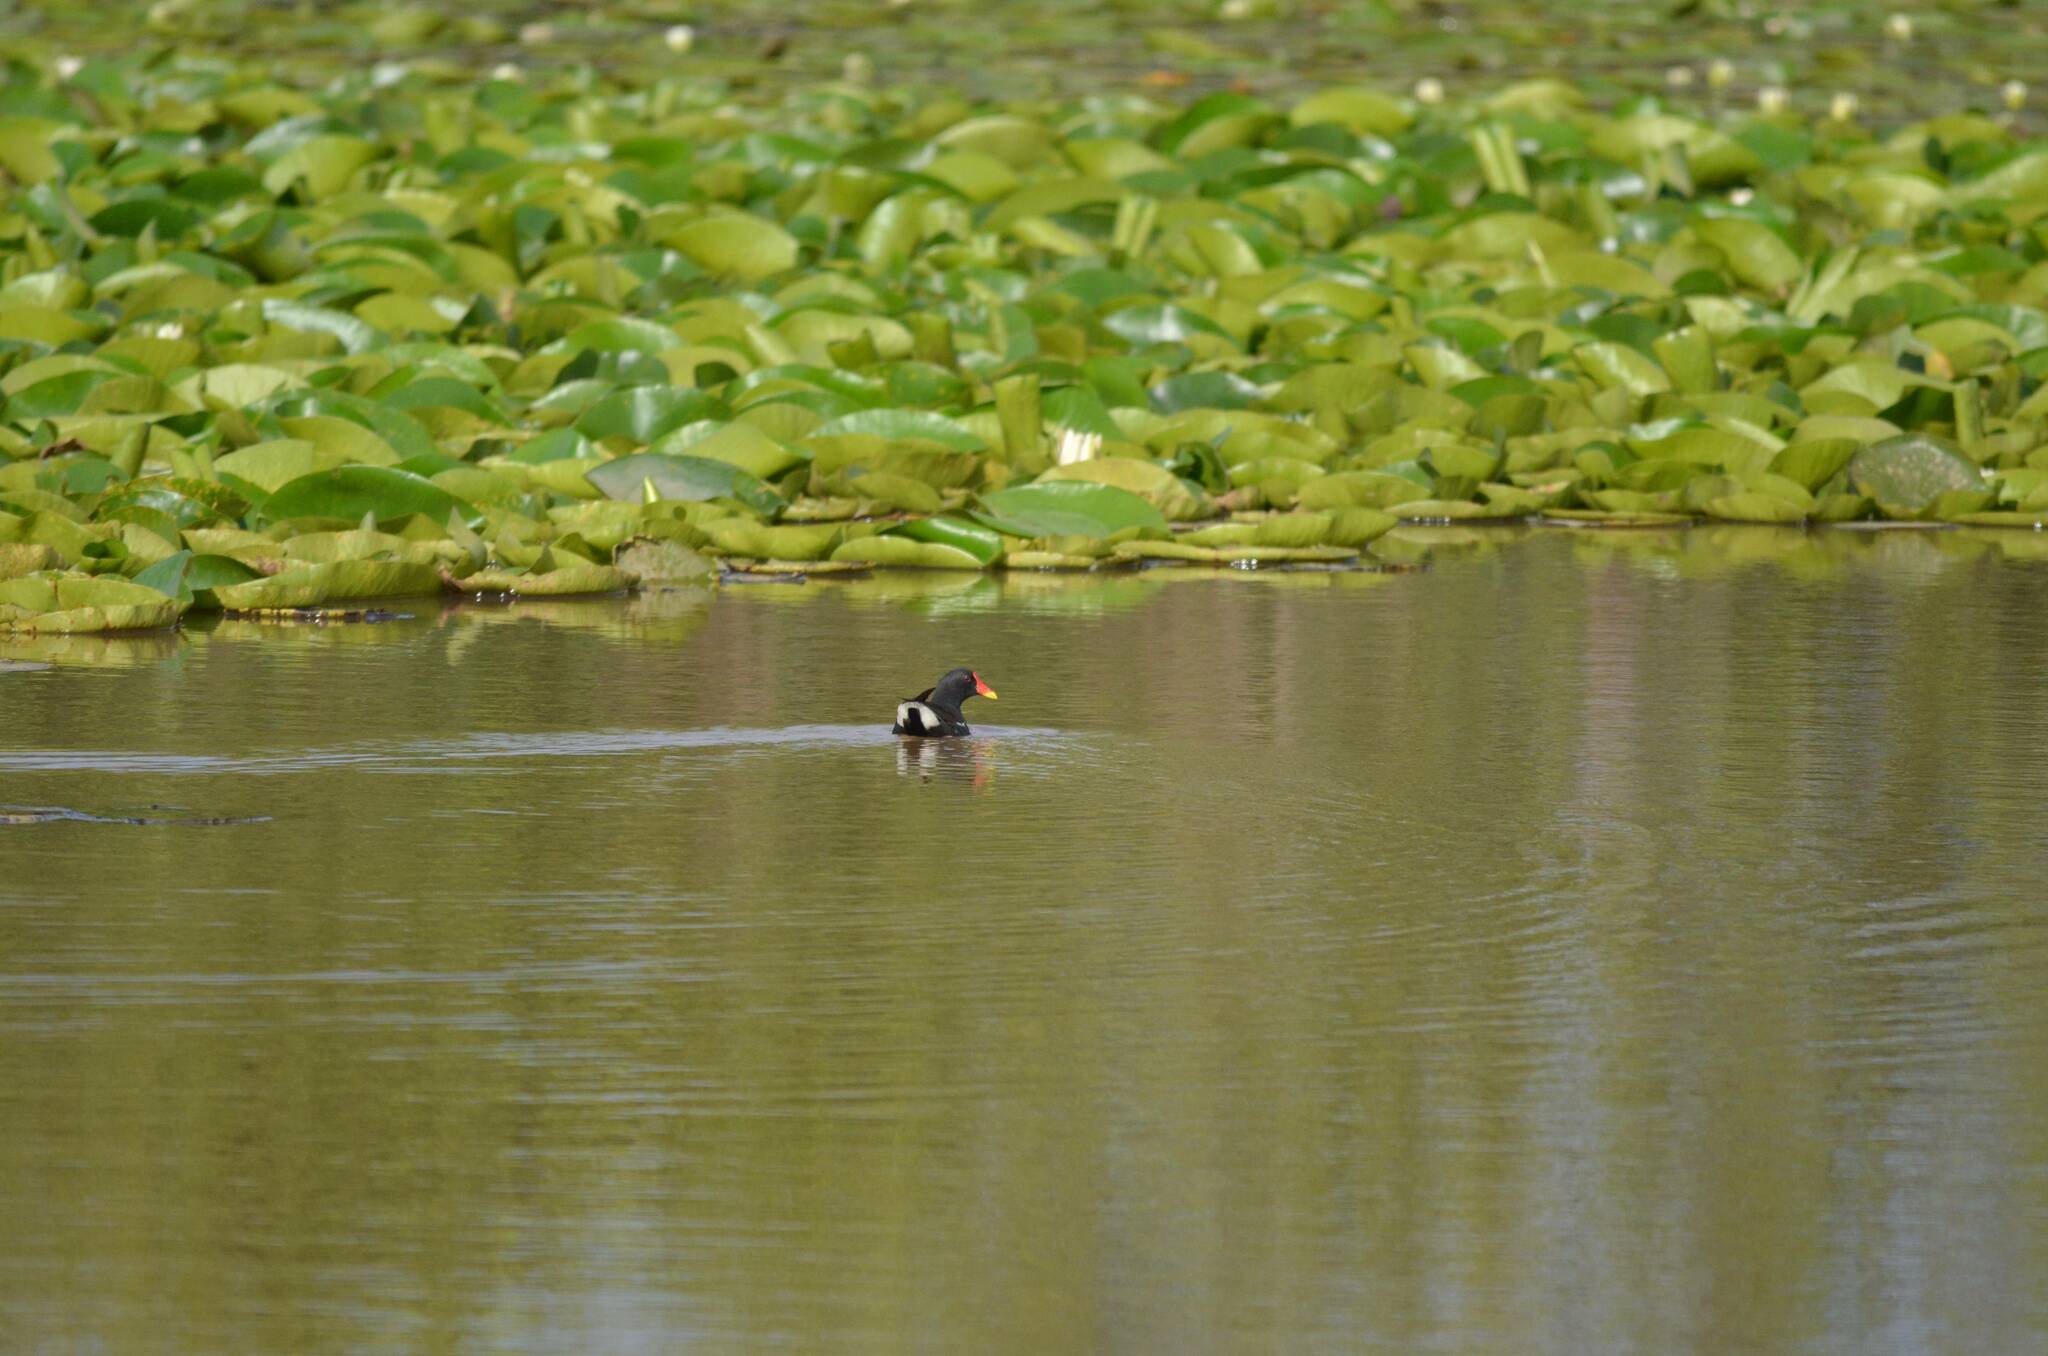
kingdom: Animalia
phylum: Chordata
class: Aves
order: Gruiformes
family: Rallidae
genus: Gallinula
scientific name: Gallinula chloropus
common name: Common moorhen
